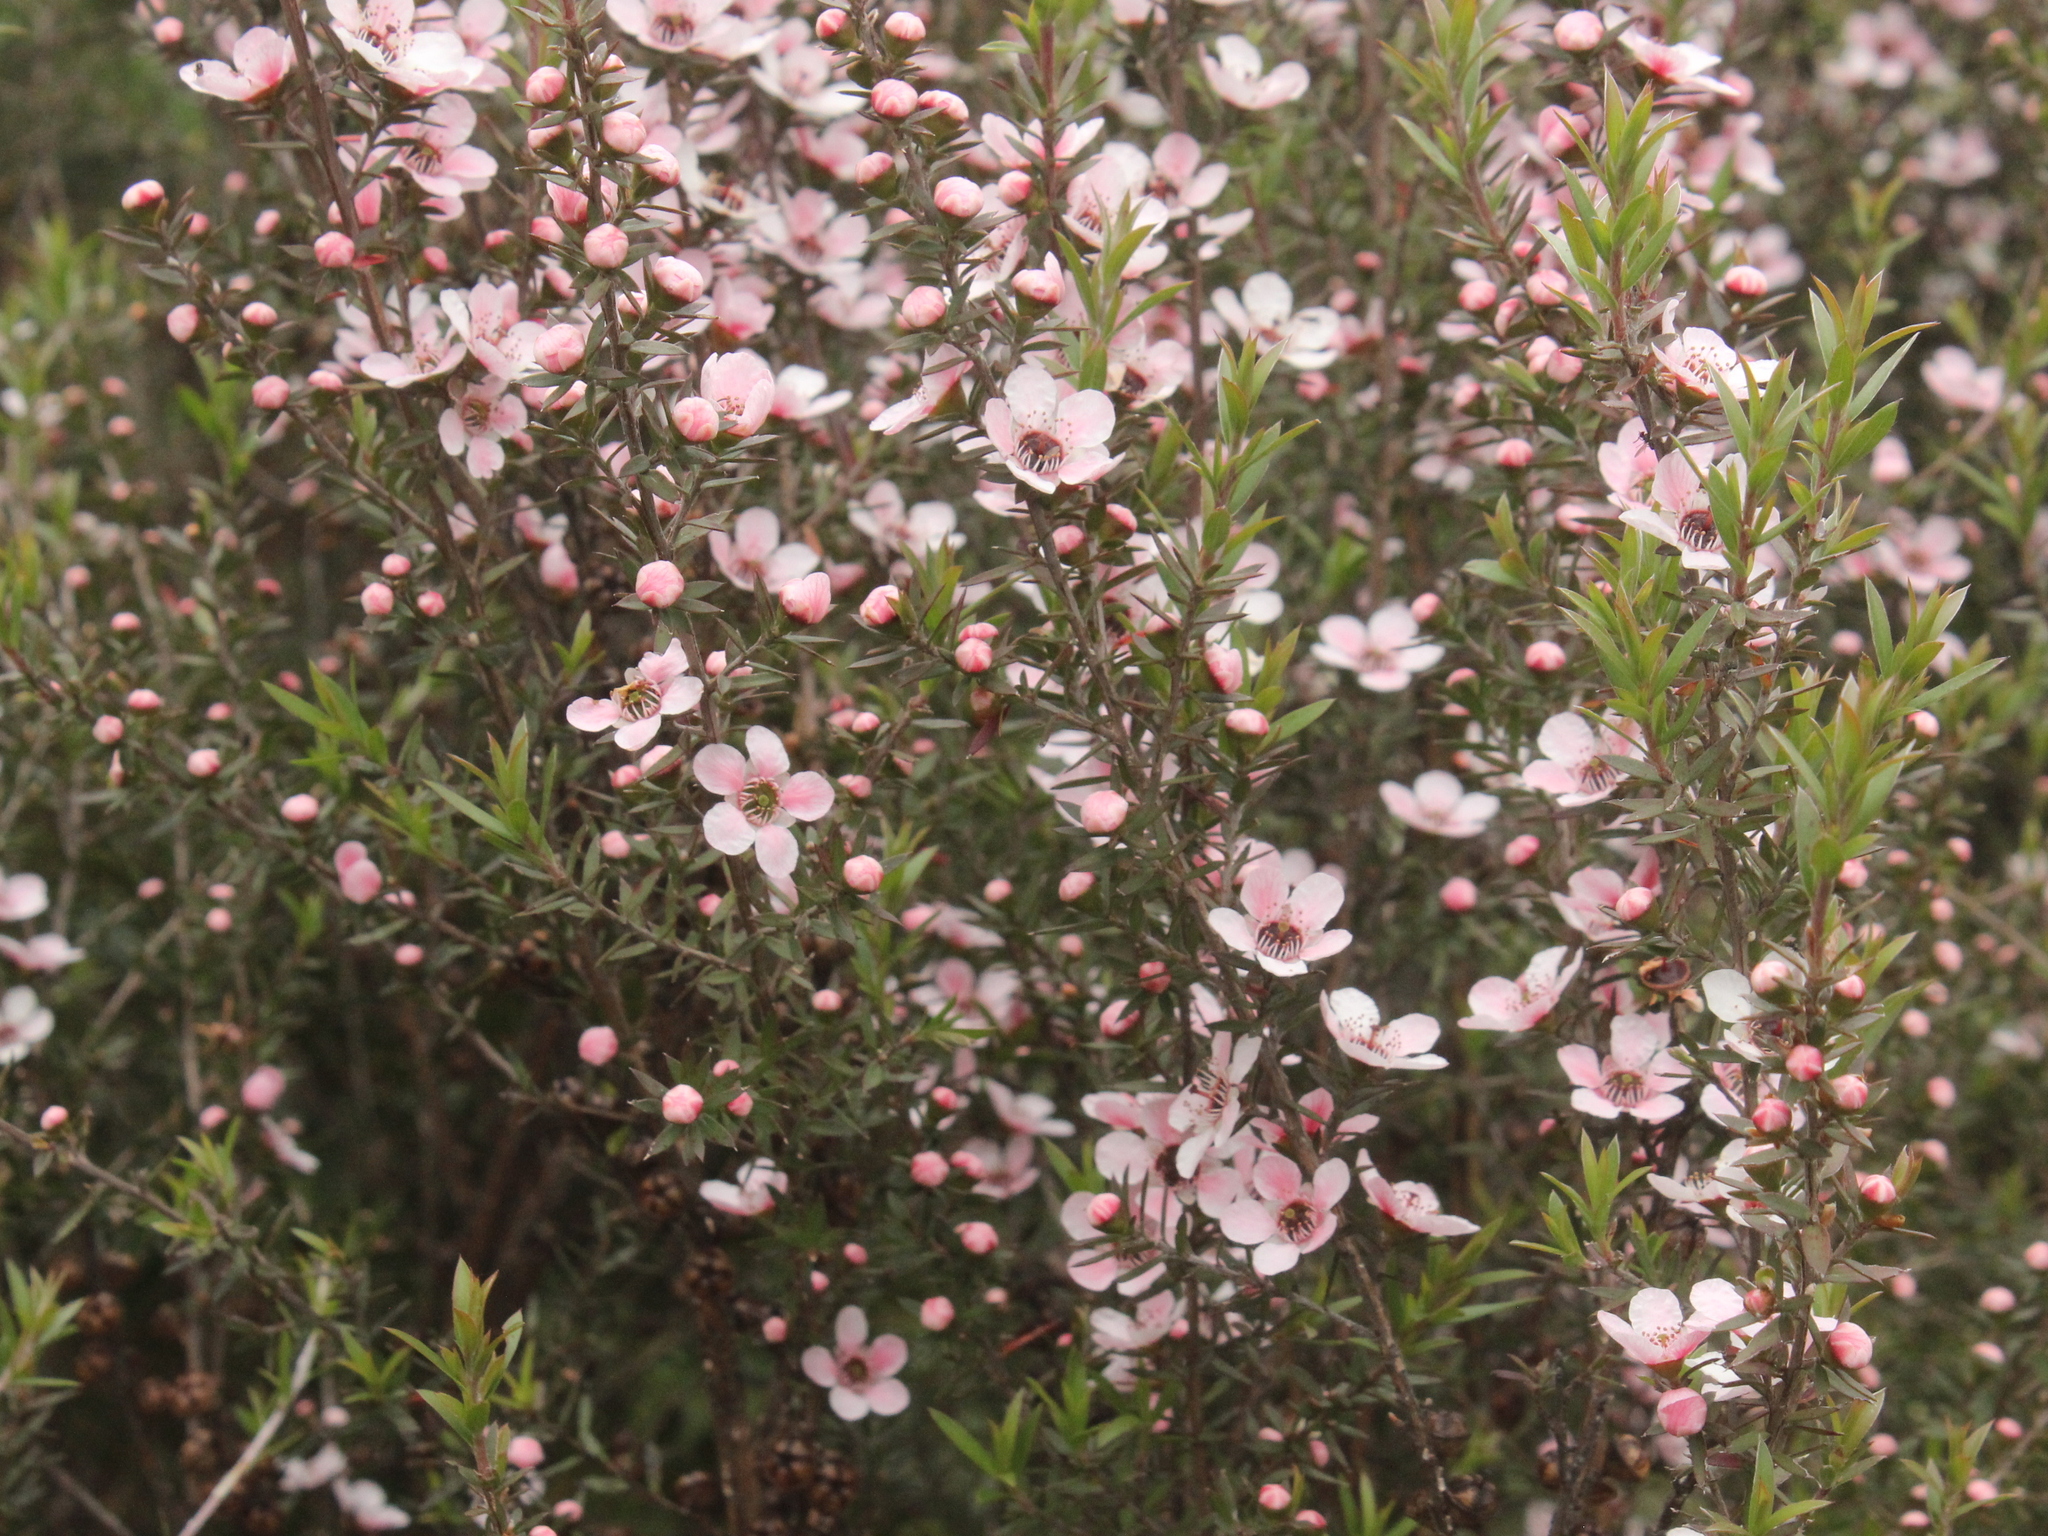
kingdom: Plantae
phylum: Tracheophyta
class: Magnoliopsida
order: Myrtales
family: Myrtaceae
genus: Leptospermum
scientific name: Leptospermum scoparium
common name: Broom tea-tree
